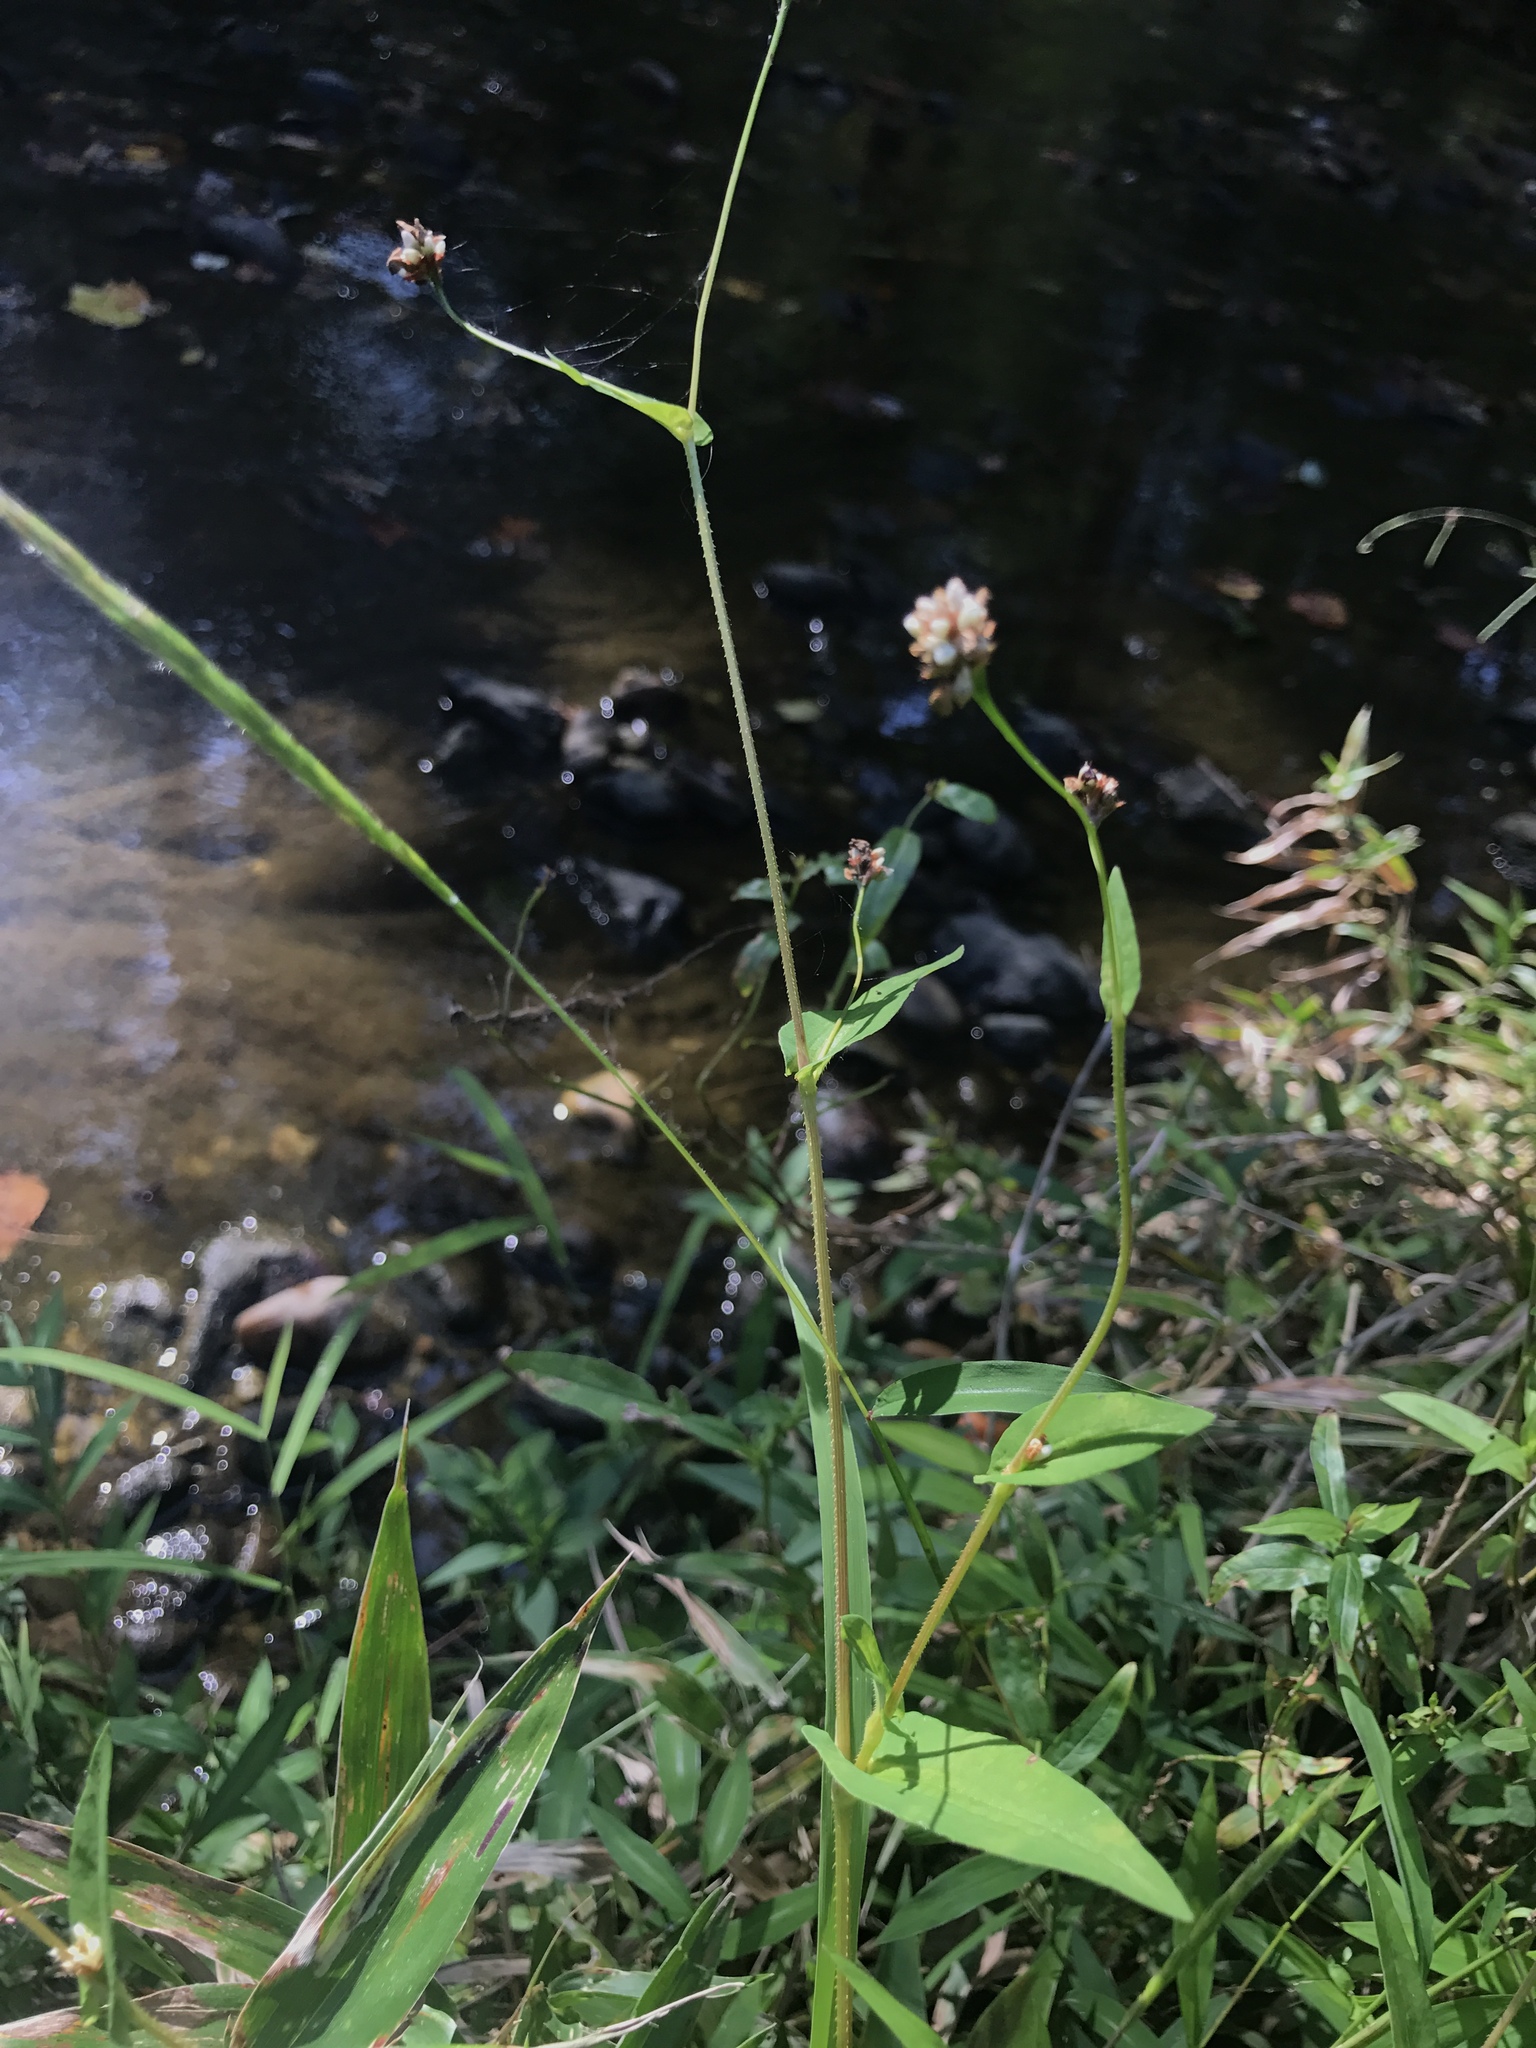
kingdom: Plantae
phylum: Tracheophyta
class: Magnoliopsida
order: Caryophyllales
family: Polygonaceae
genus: Persicaria
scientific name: Persicaria sagittata
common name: American tearthumb
